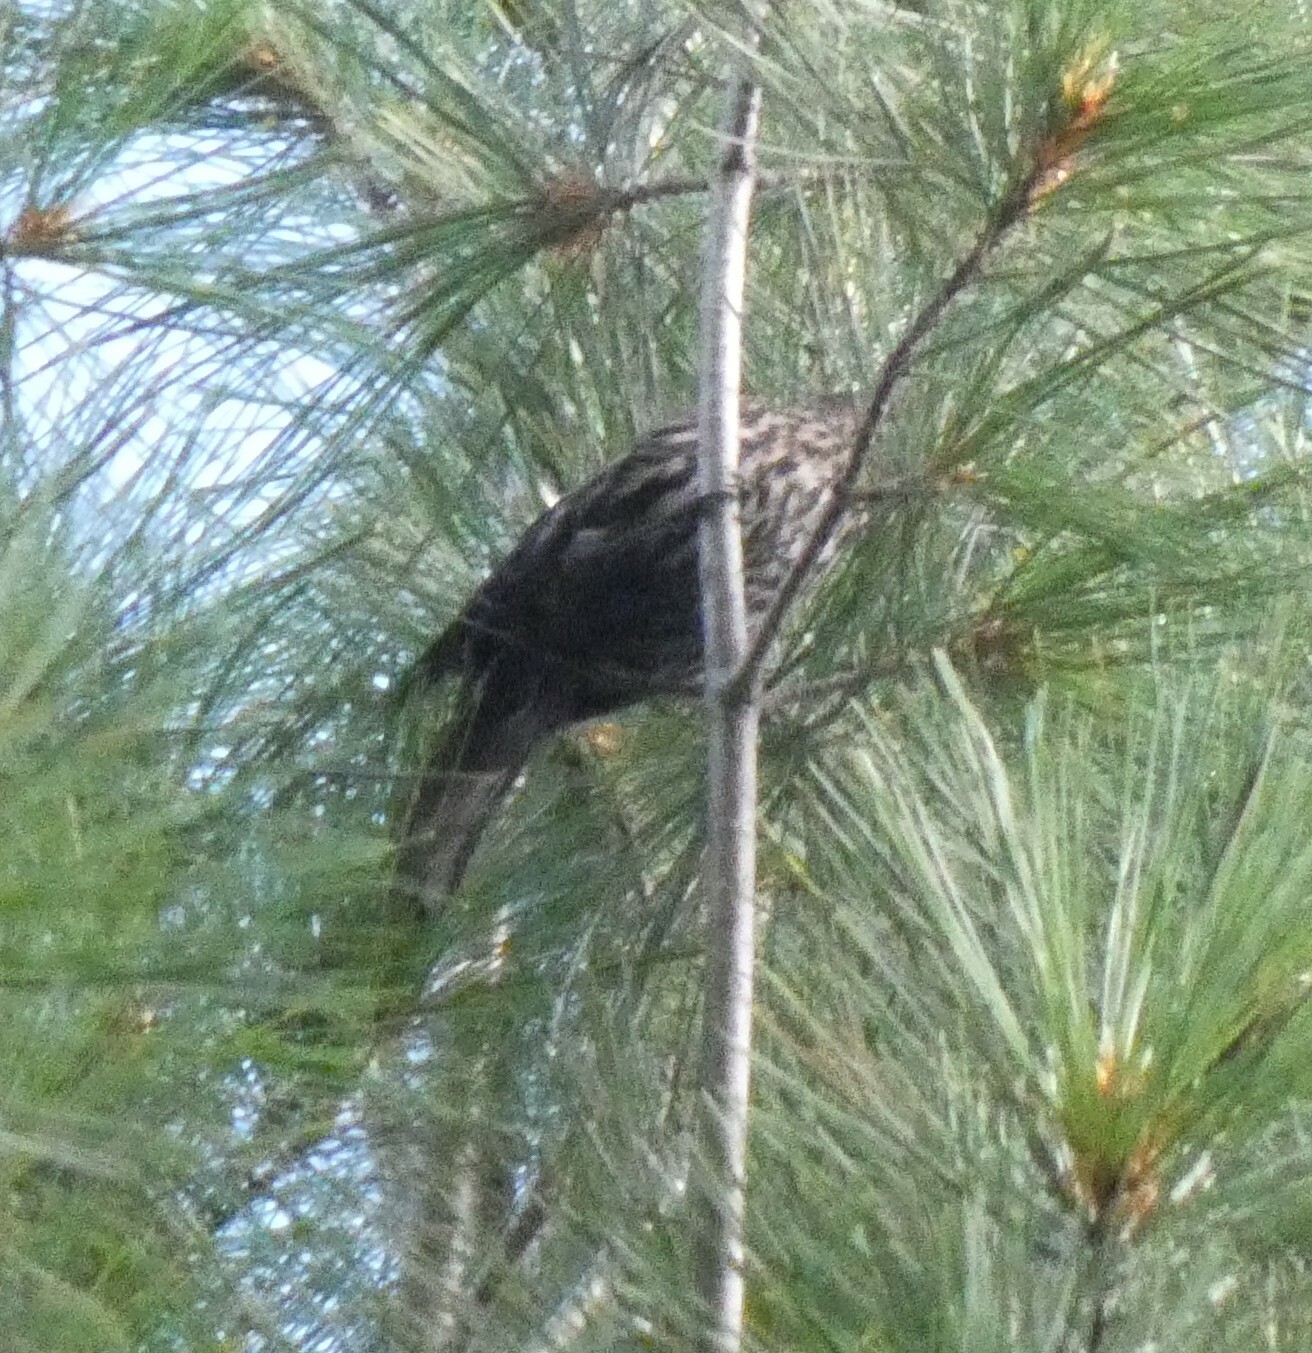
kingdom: Animalia
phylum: Chordata
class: Aves
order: Passeriformes
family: Icteridae
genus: Agelaius
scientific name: Agelaius phoeniceus
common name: Red-winged blackbird
